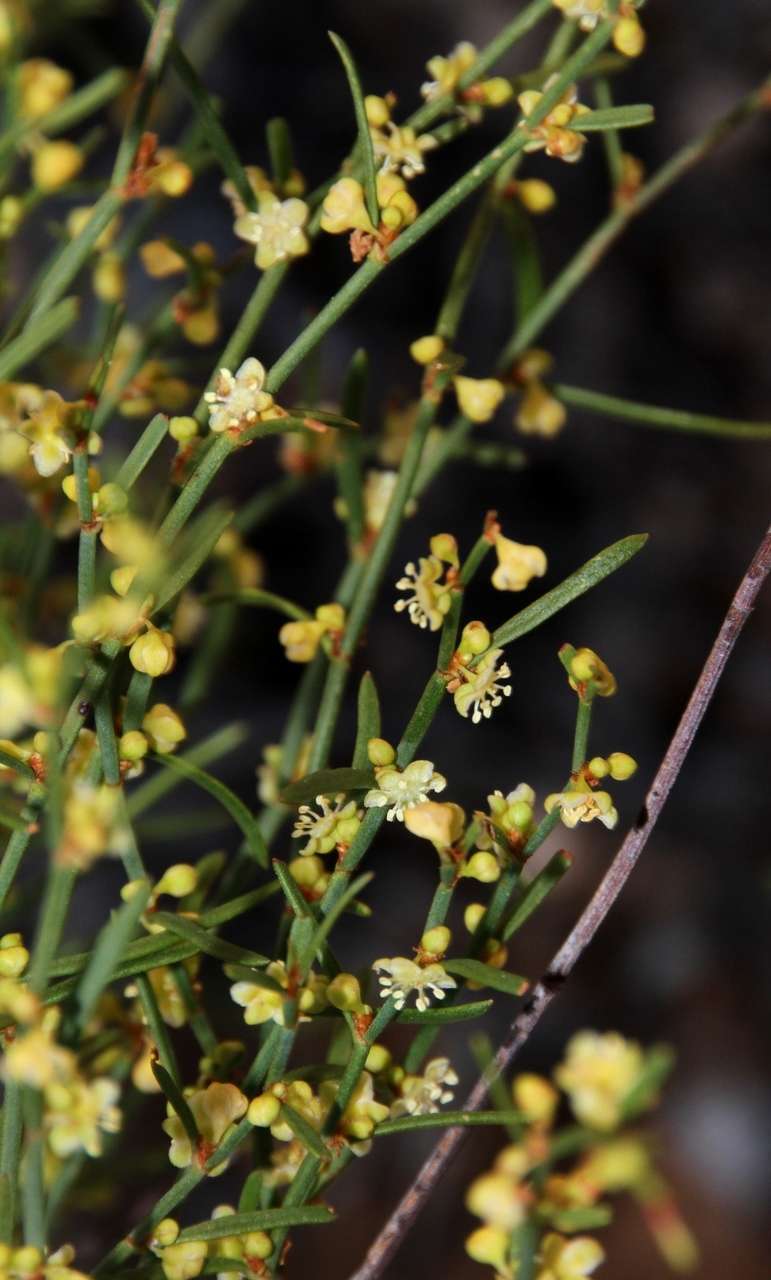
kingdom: Plantae
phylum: Tracheophyta
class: Magnoliopsida
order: Caryophyllales
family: Polygonaceae
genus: Muehlenbeckia
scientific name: Muehlenbeckia diclina
